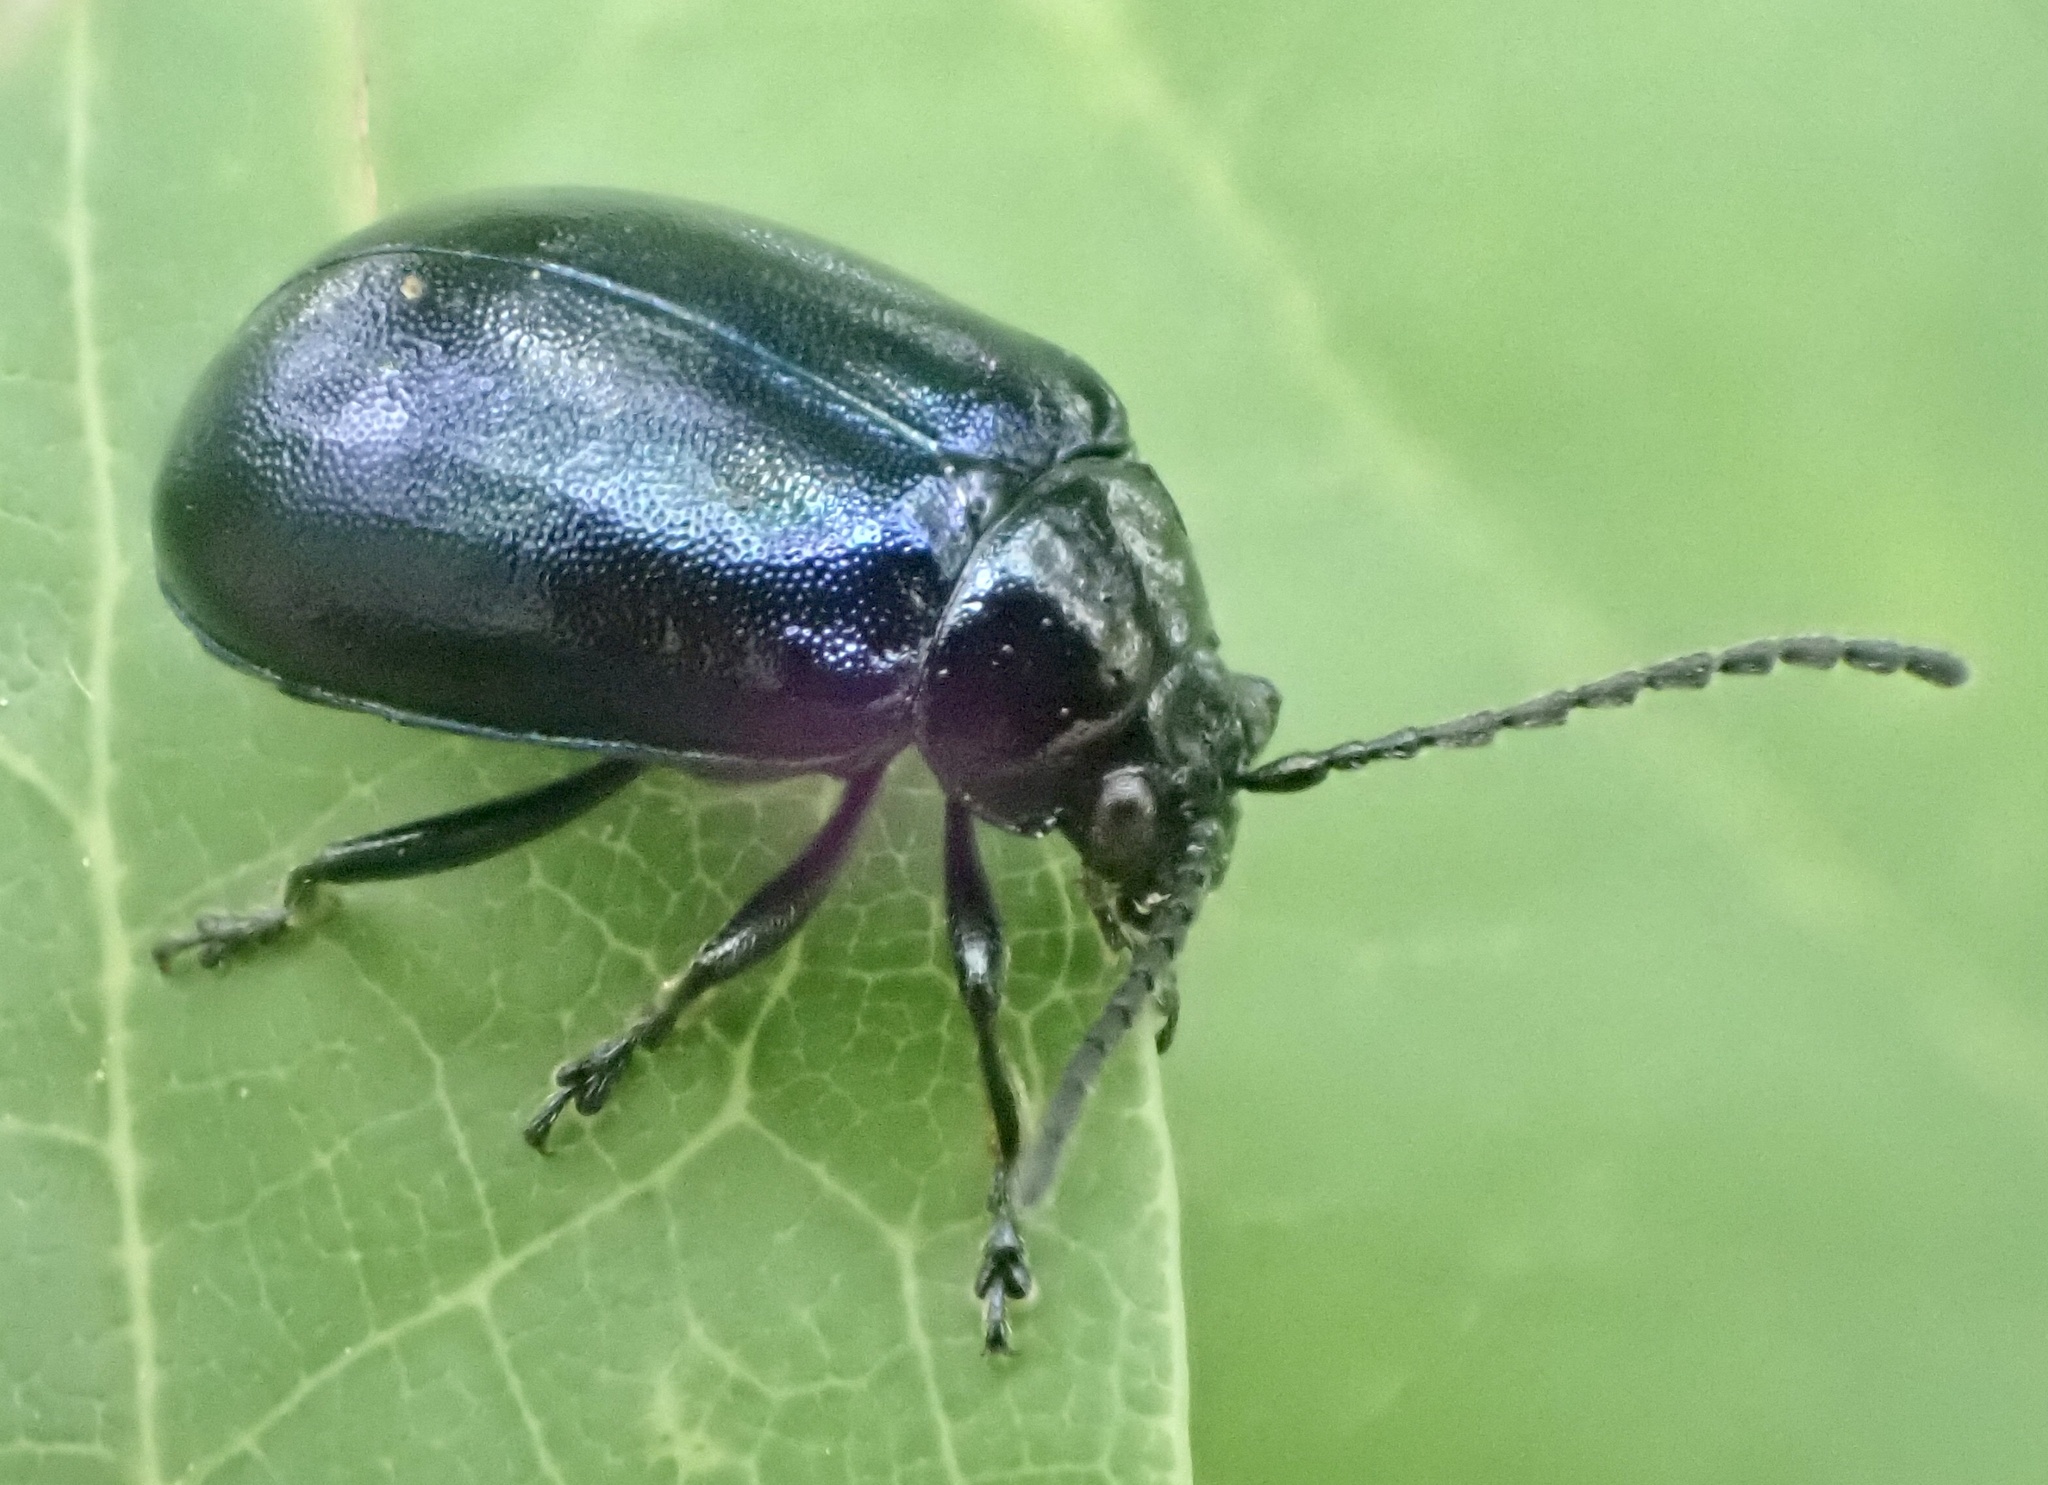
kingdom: Animalia
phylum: Arthropoda
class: Insecta
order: Coleoptera
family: Chrysomelidae
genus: Agelastica
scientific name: Agelastica alni
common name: Alder leaf beetle
